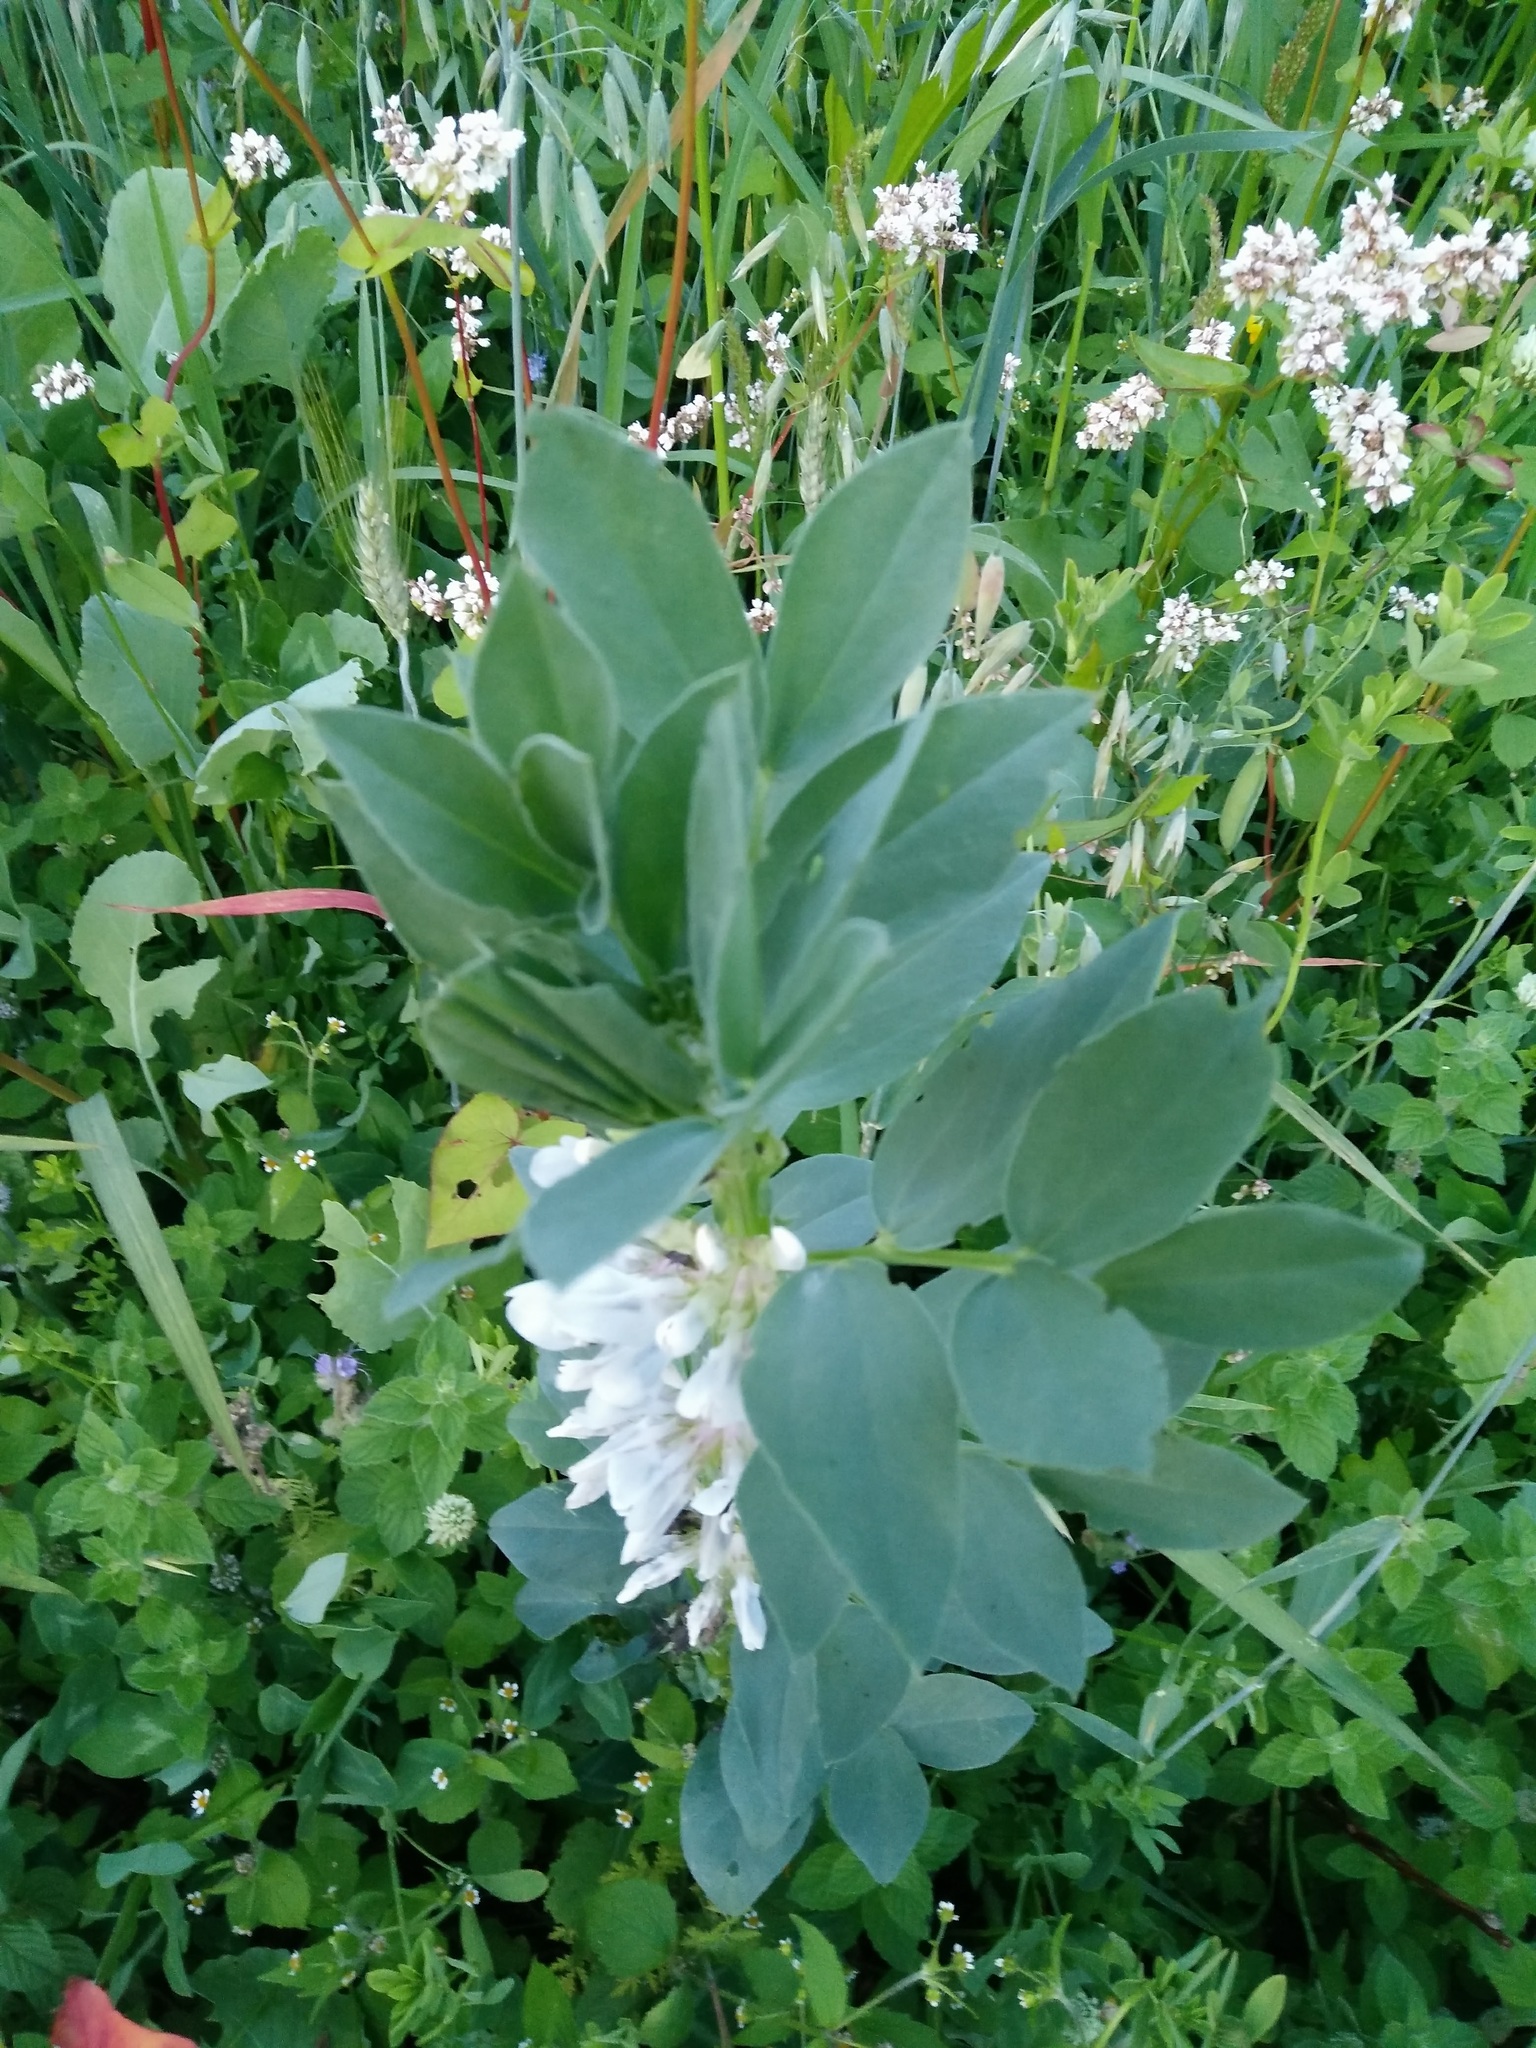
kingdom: Plantae
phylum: Tracheophyta
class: Magnoliopsida
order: Fabales
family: Fabaceae
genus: Vicia
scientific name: Vicia faba
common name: Broad bean
